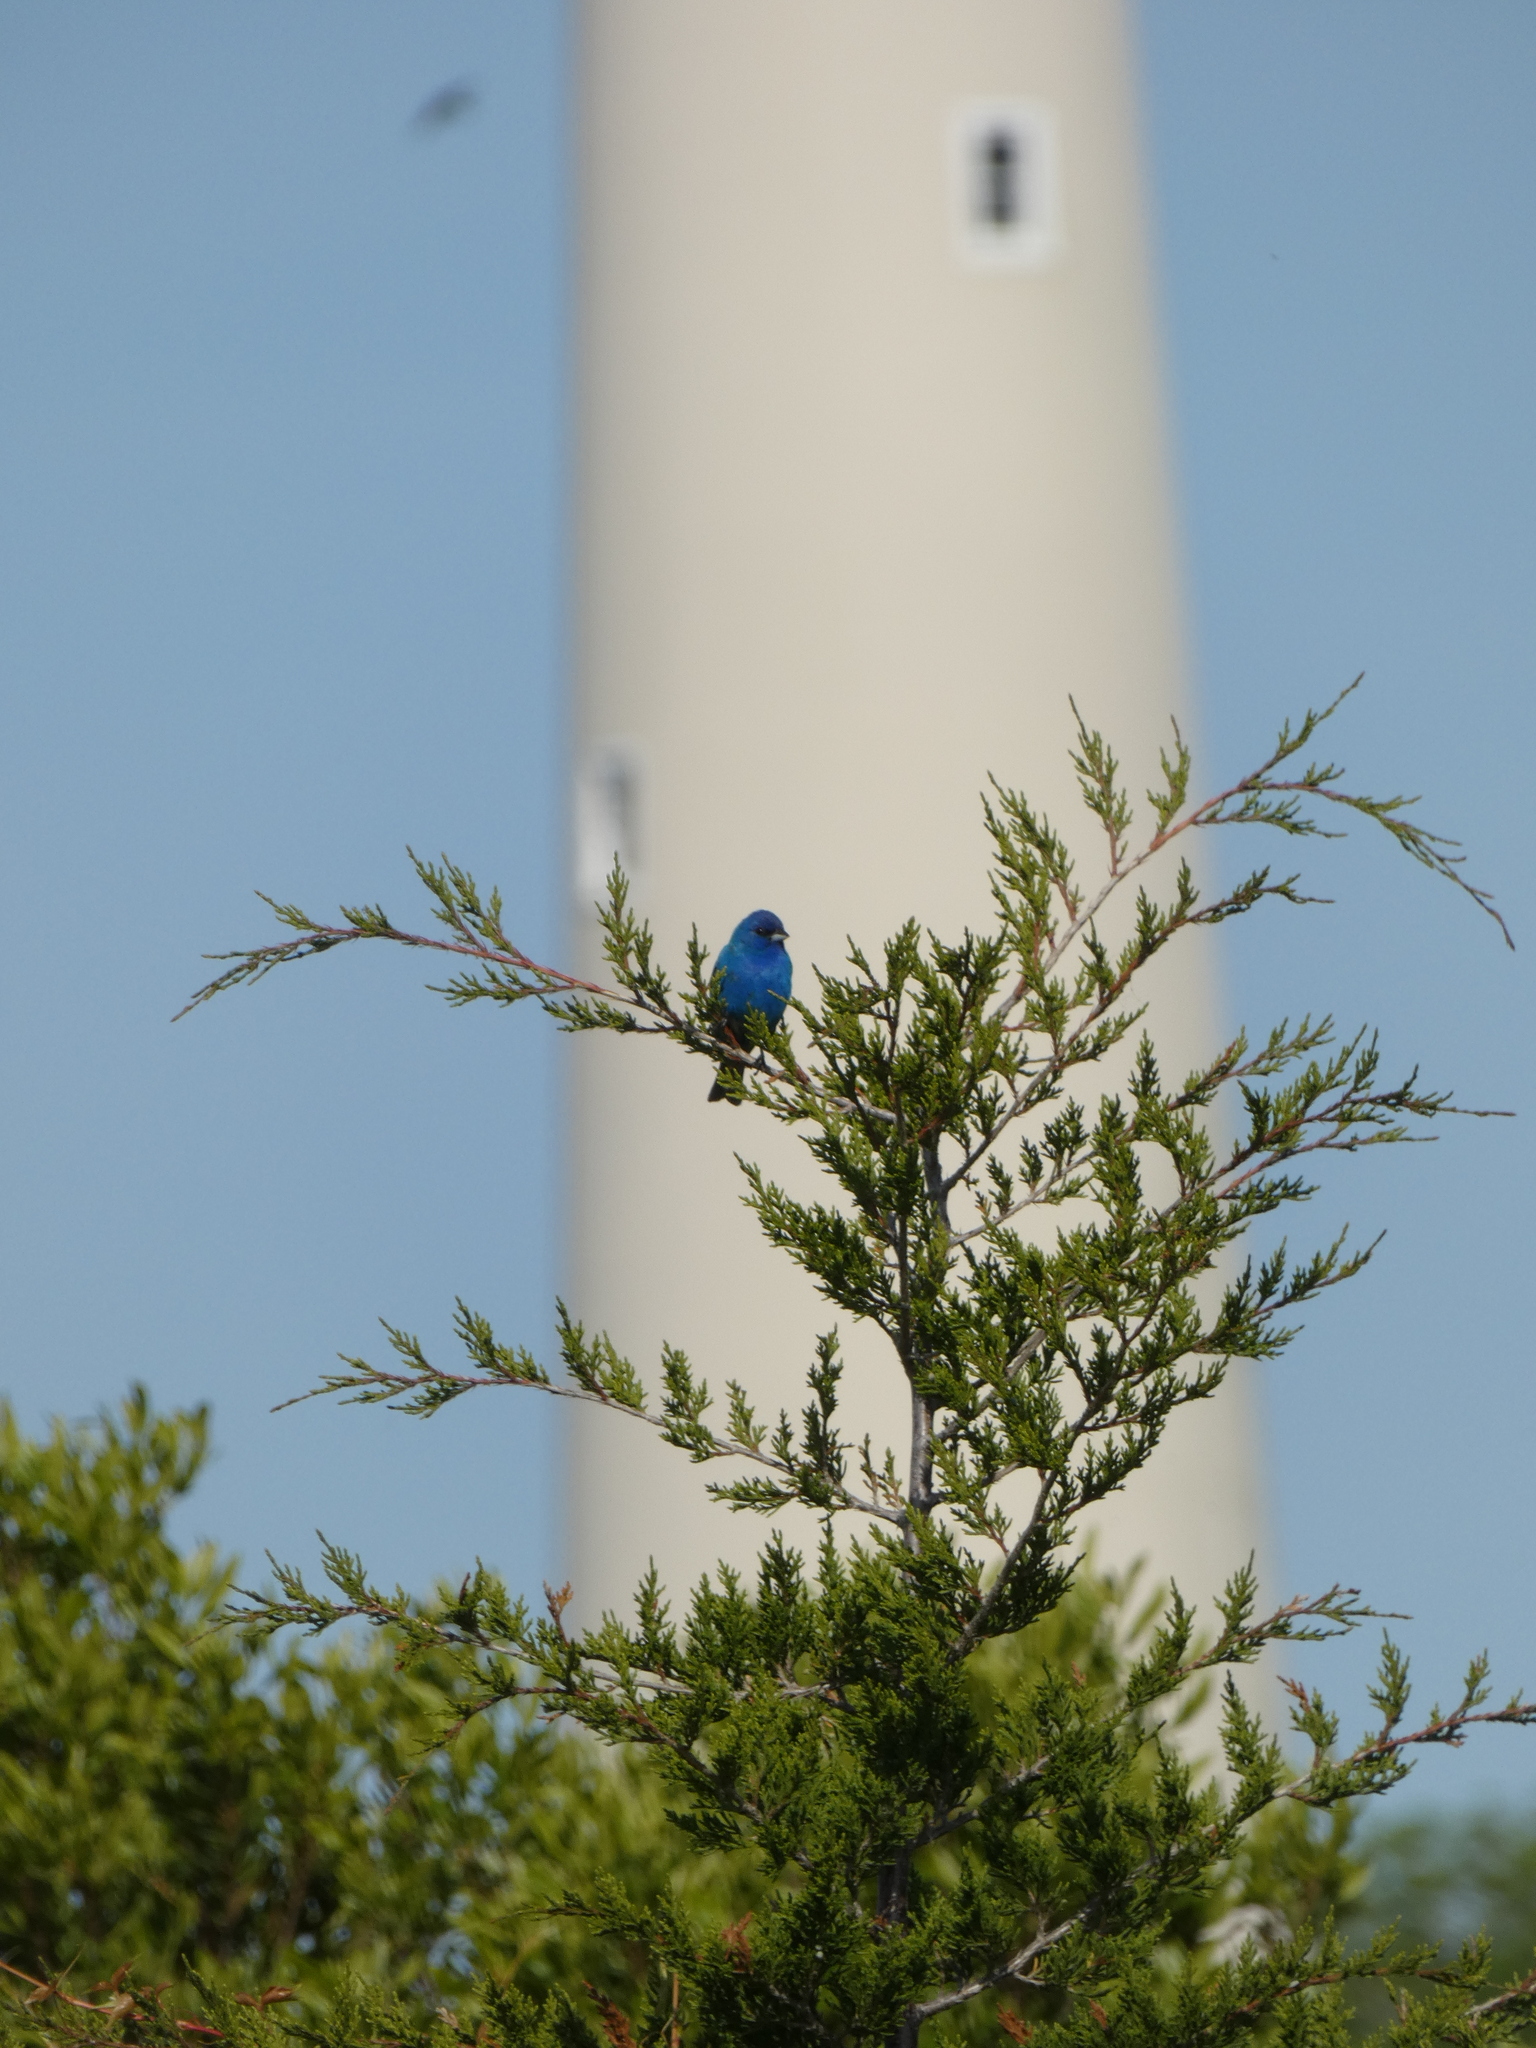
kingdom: Animalia
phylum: Chordata
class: Aves
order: Passeriformes
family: Cardinalidae
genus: Passerina
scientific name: Passerina cyanea
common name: Indigo bunting
